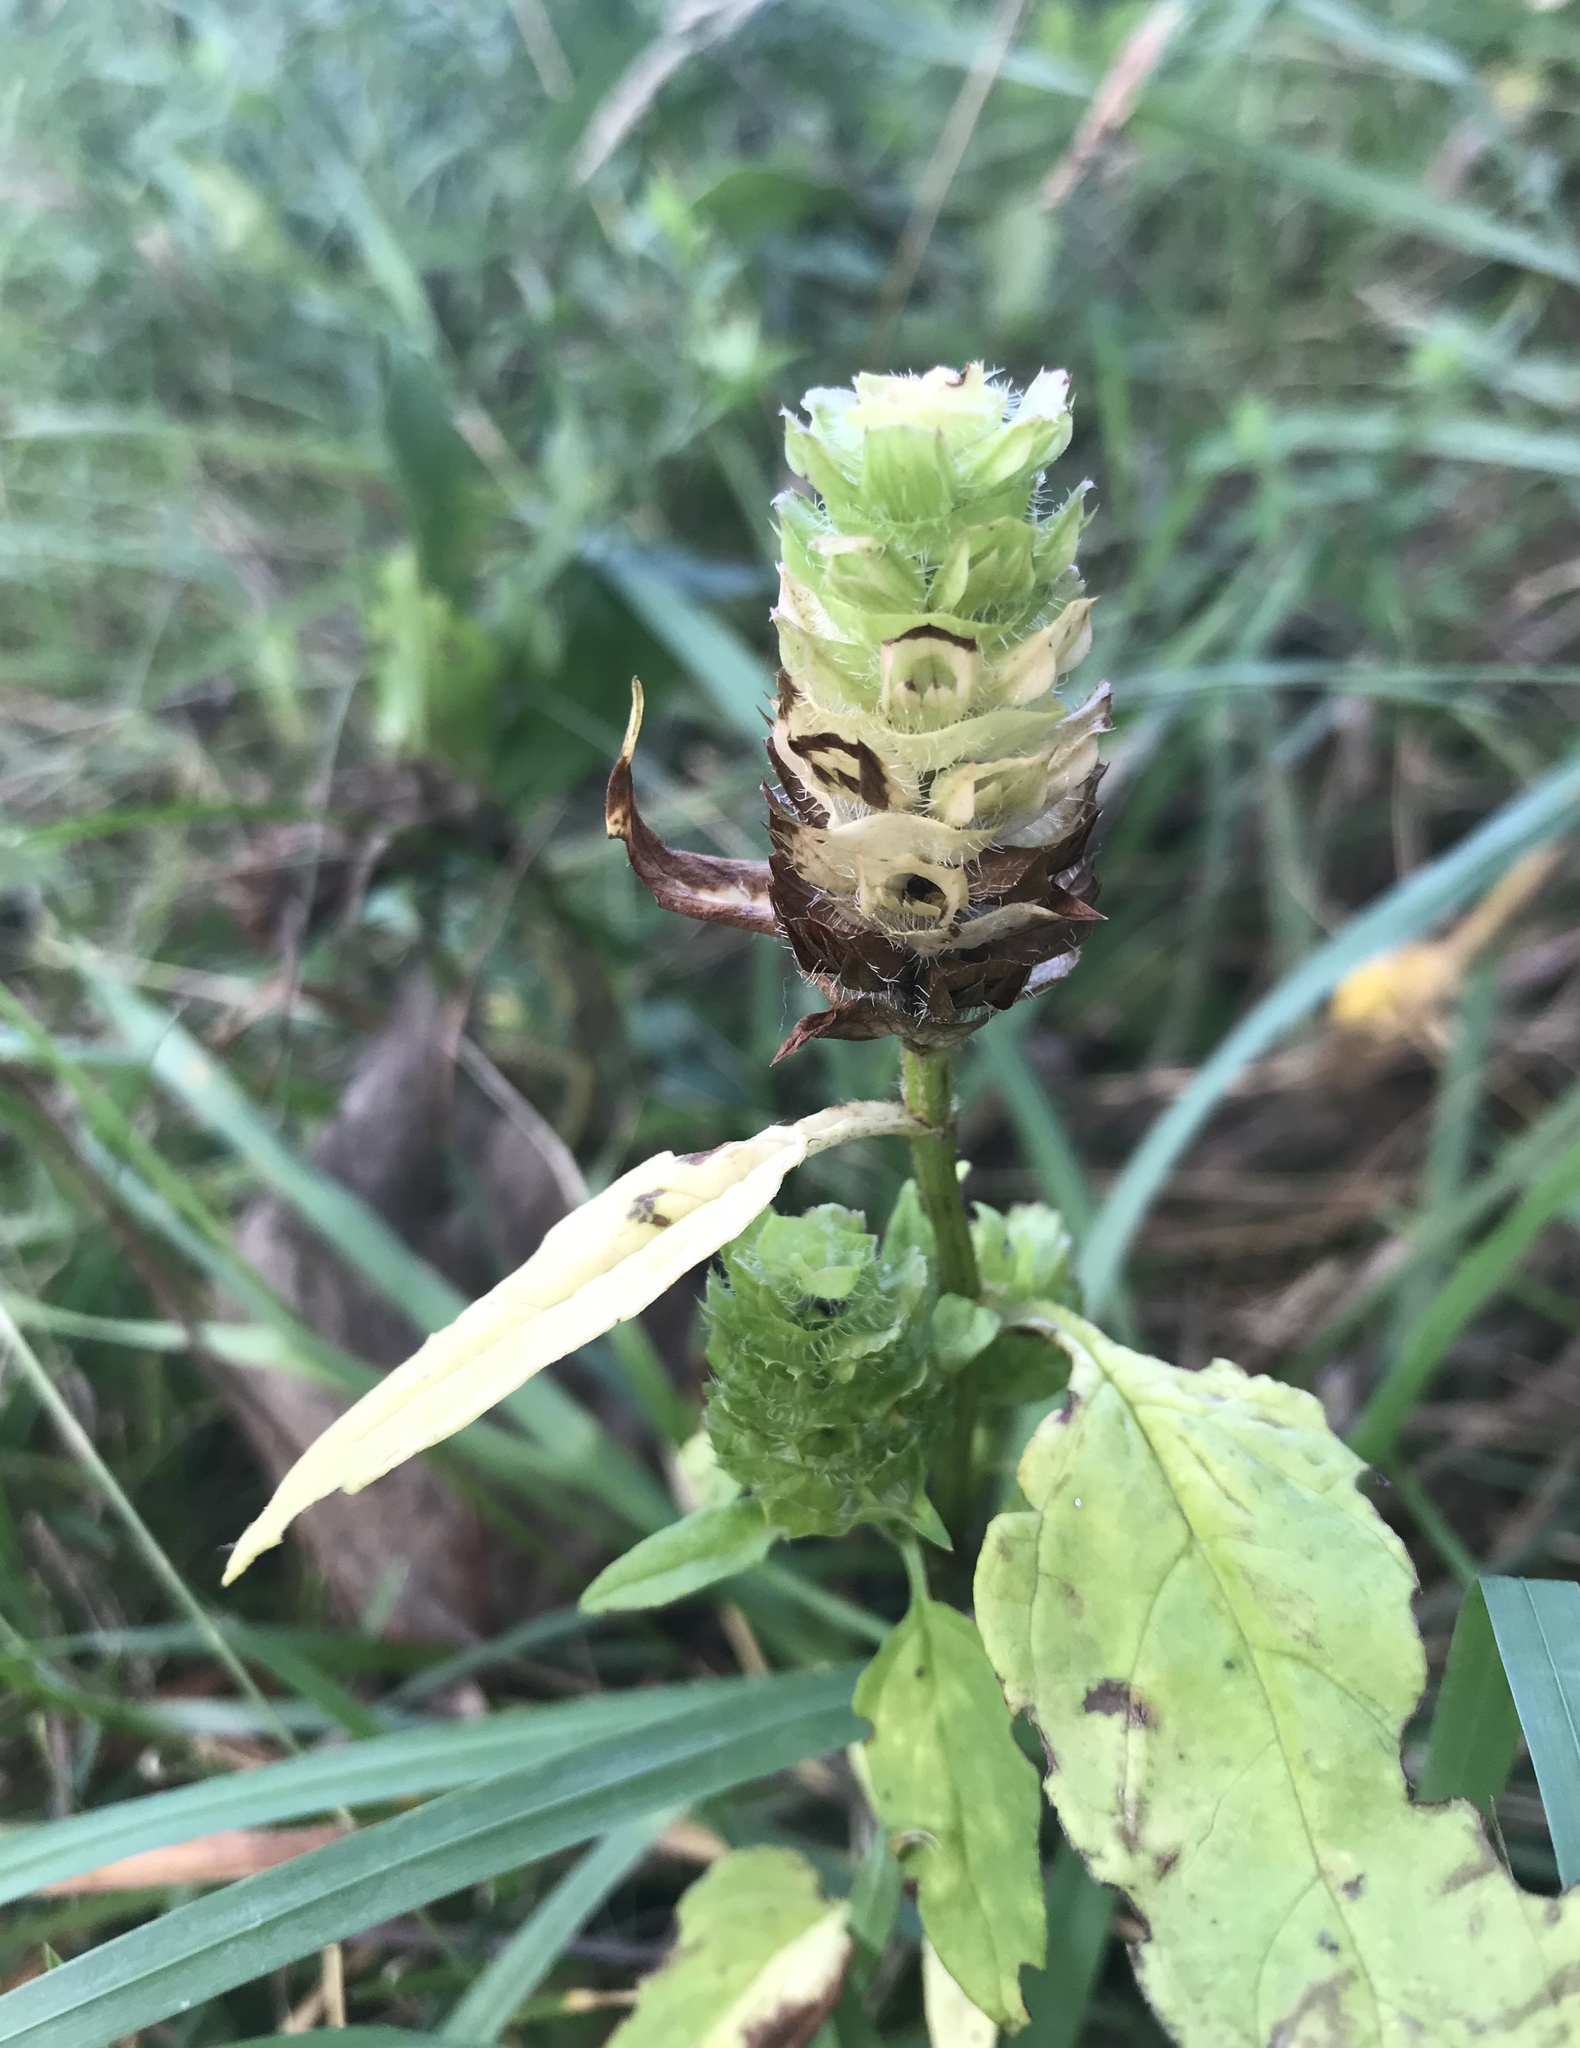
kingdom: Plantae
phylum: Tracheophyta
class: Magnoliopsida
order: Lamiales
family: Lamiaceae
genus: Prunella
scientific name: Prunella vulgaris
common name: Heal-all
